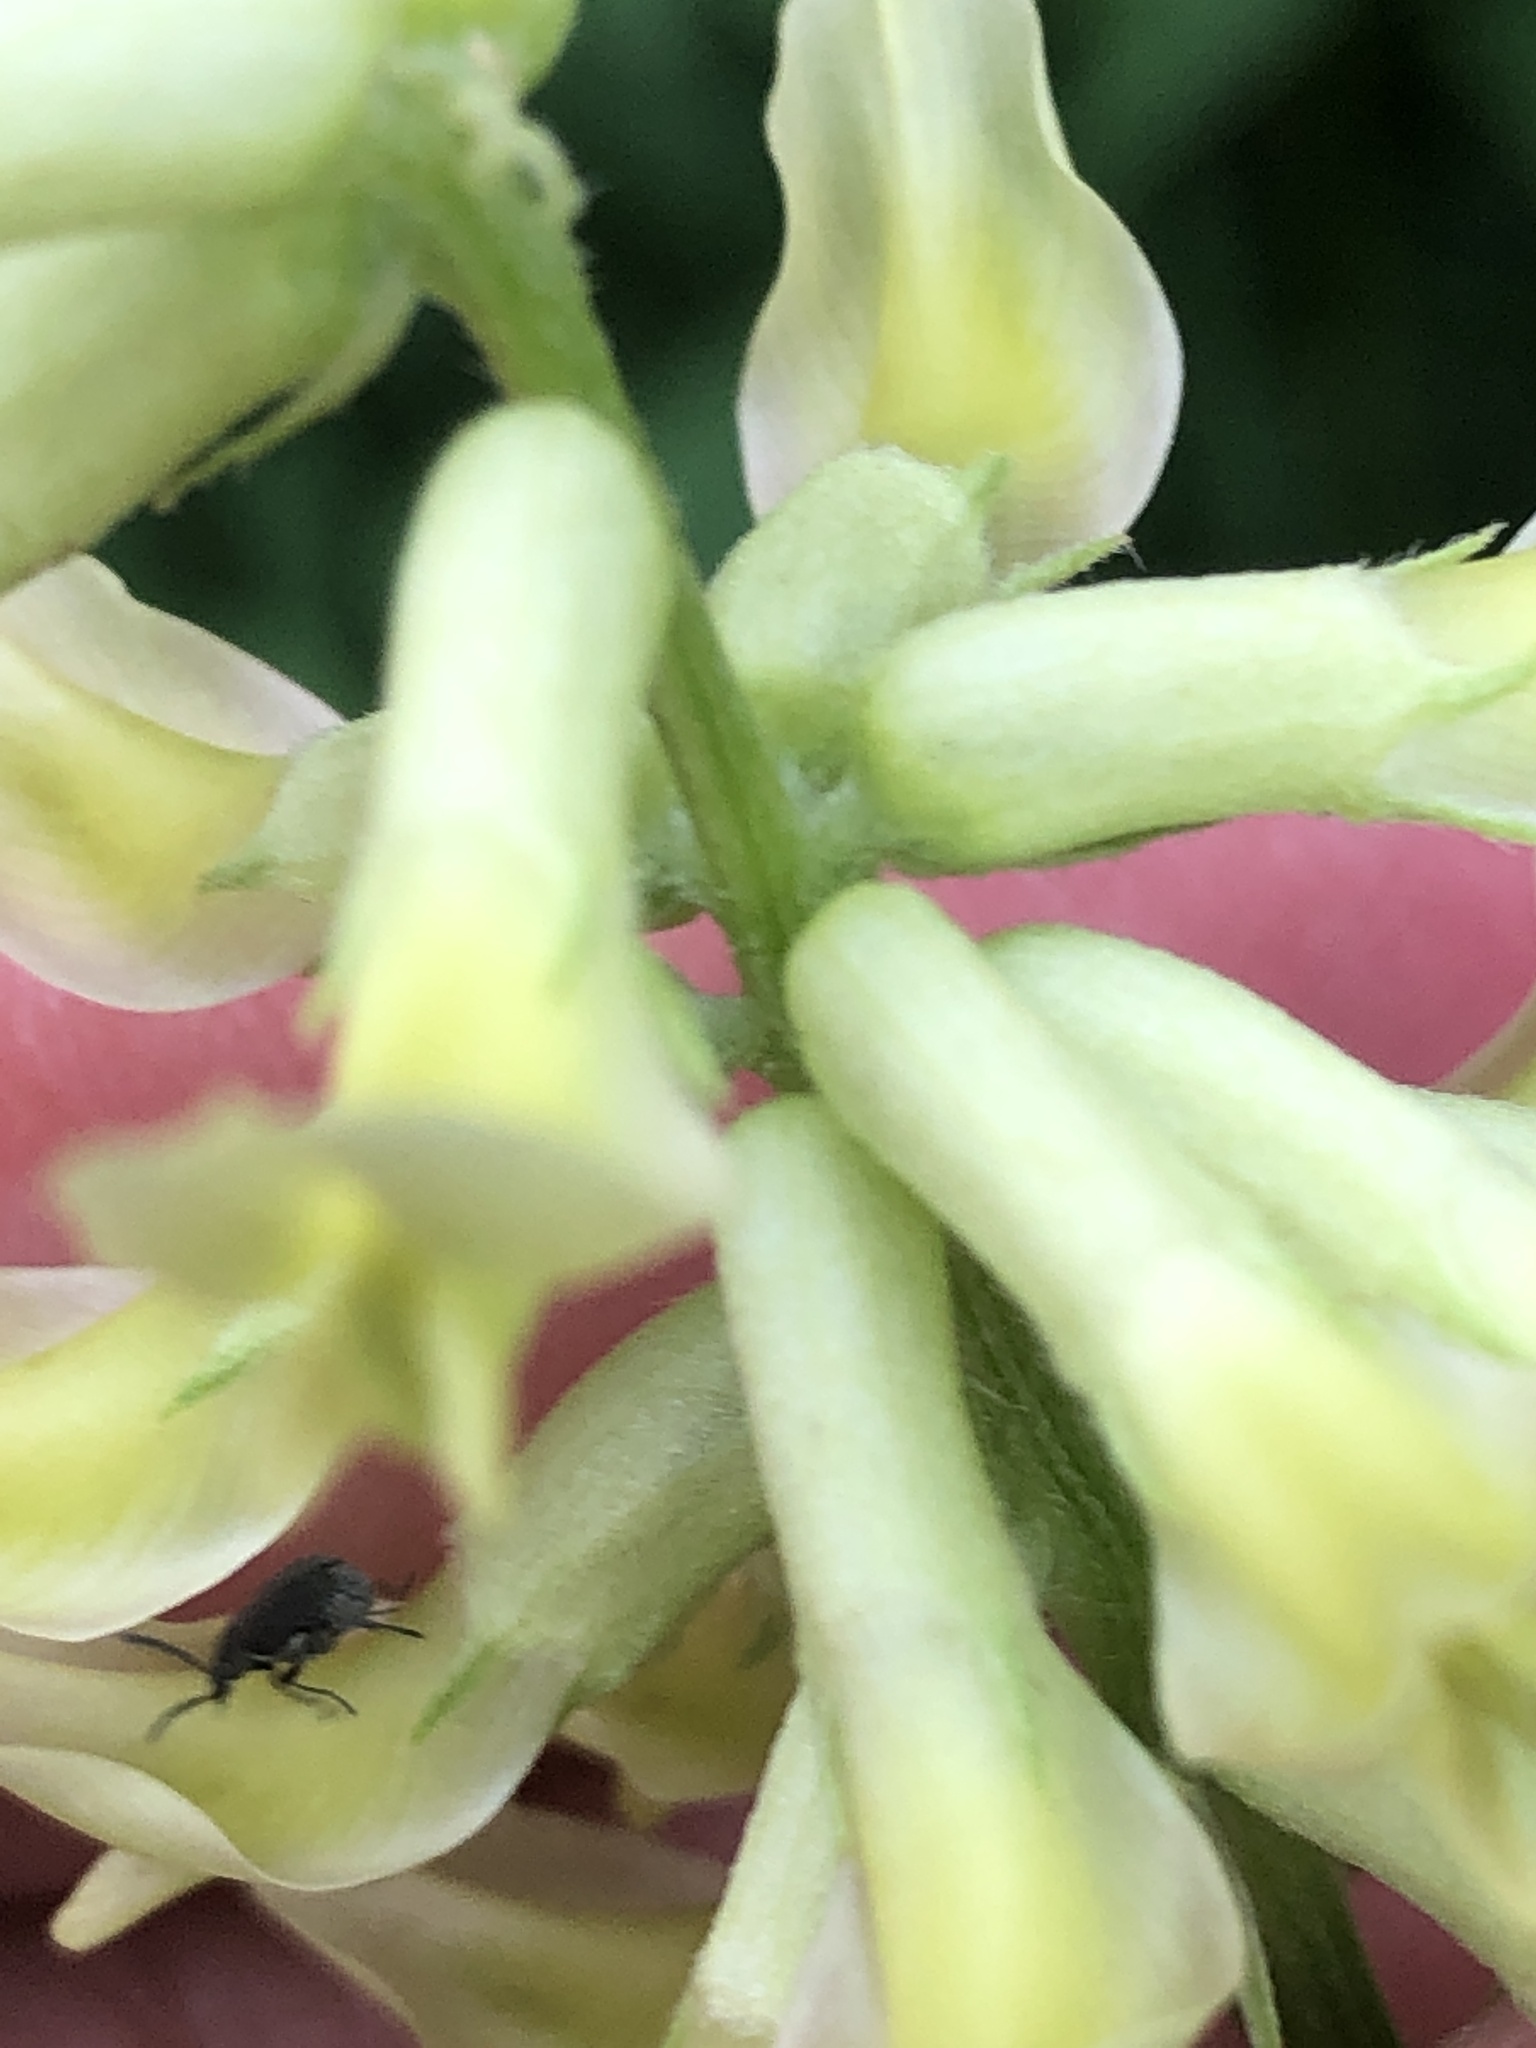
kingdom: Plantae
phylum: Tracheophyta
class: Magnoliopsida
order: Fabales
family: Fabaceae
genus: Astragalus
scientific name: Astragalus canadensis
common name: Canada milk-vetch
